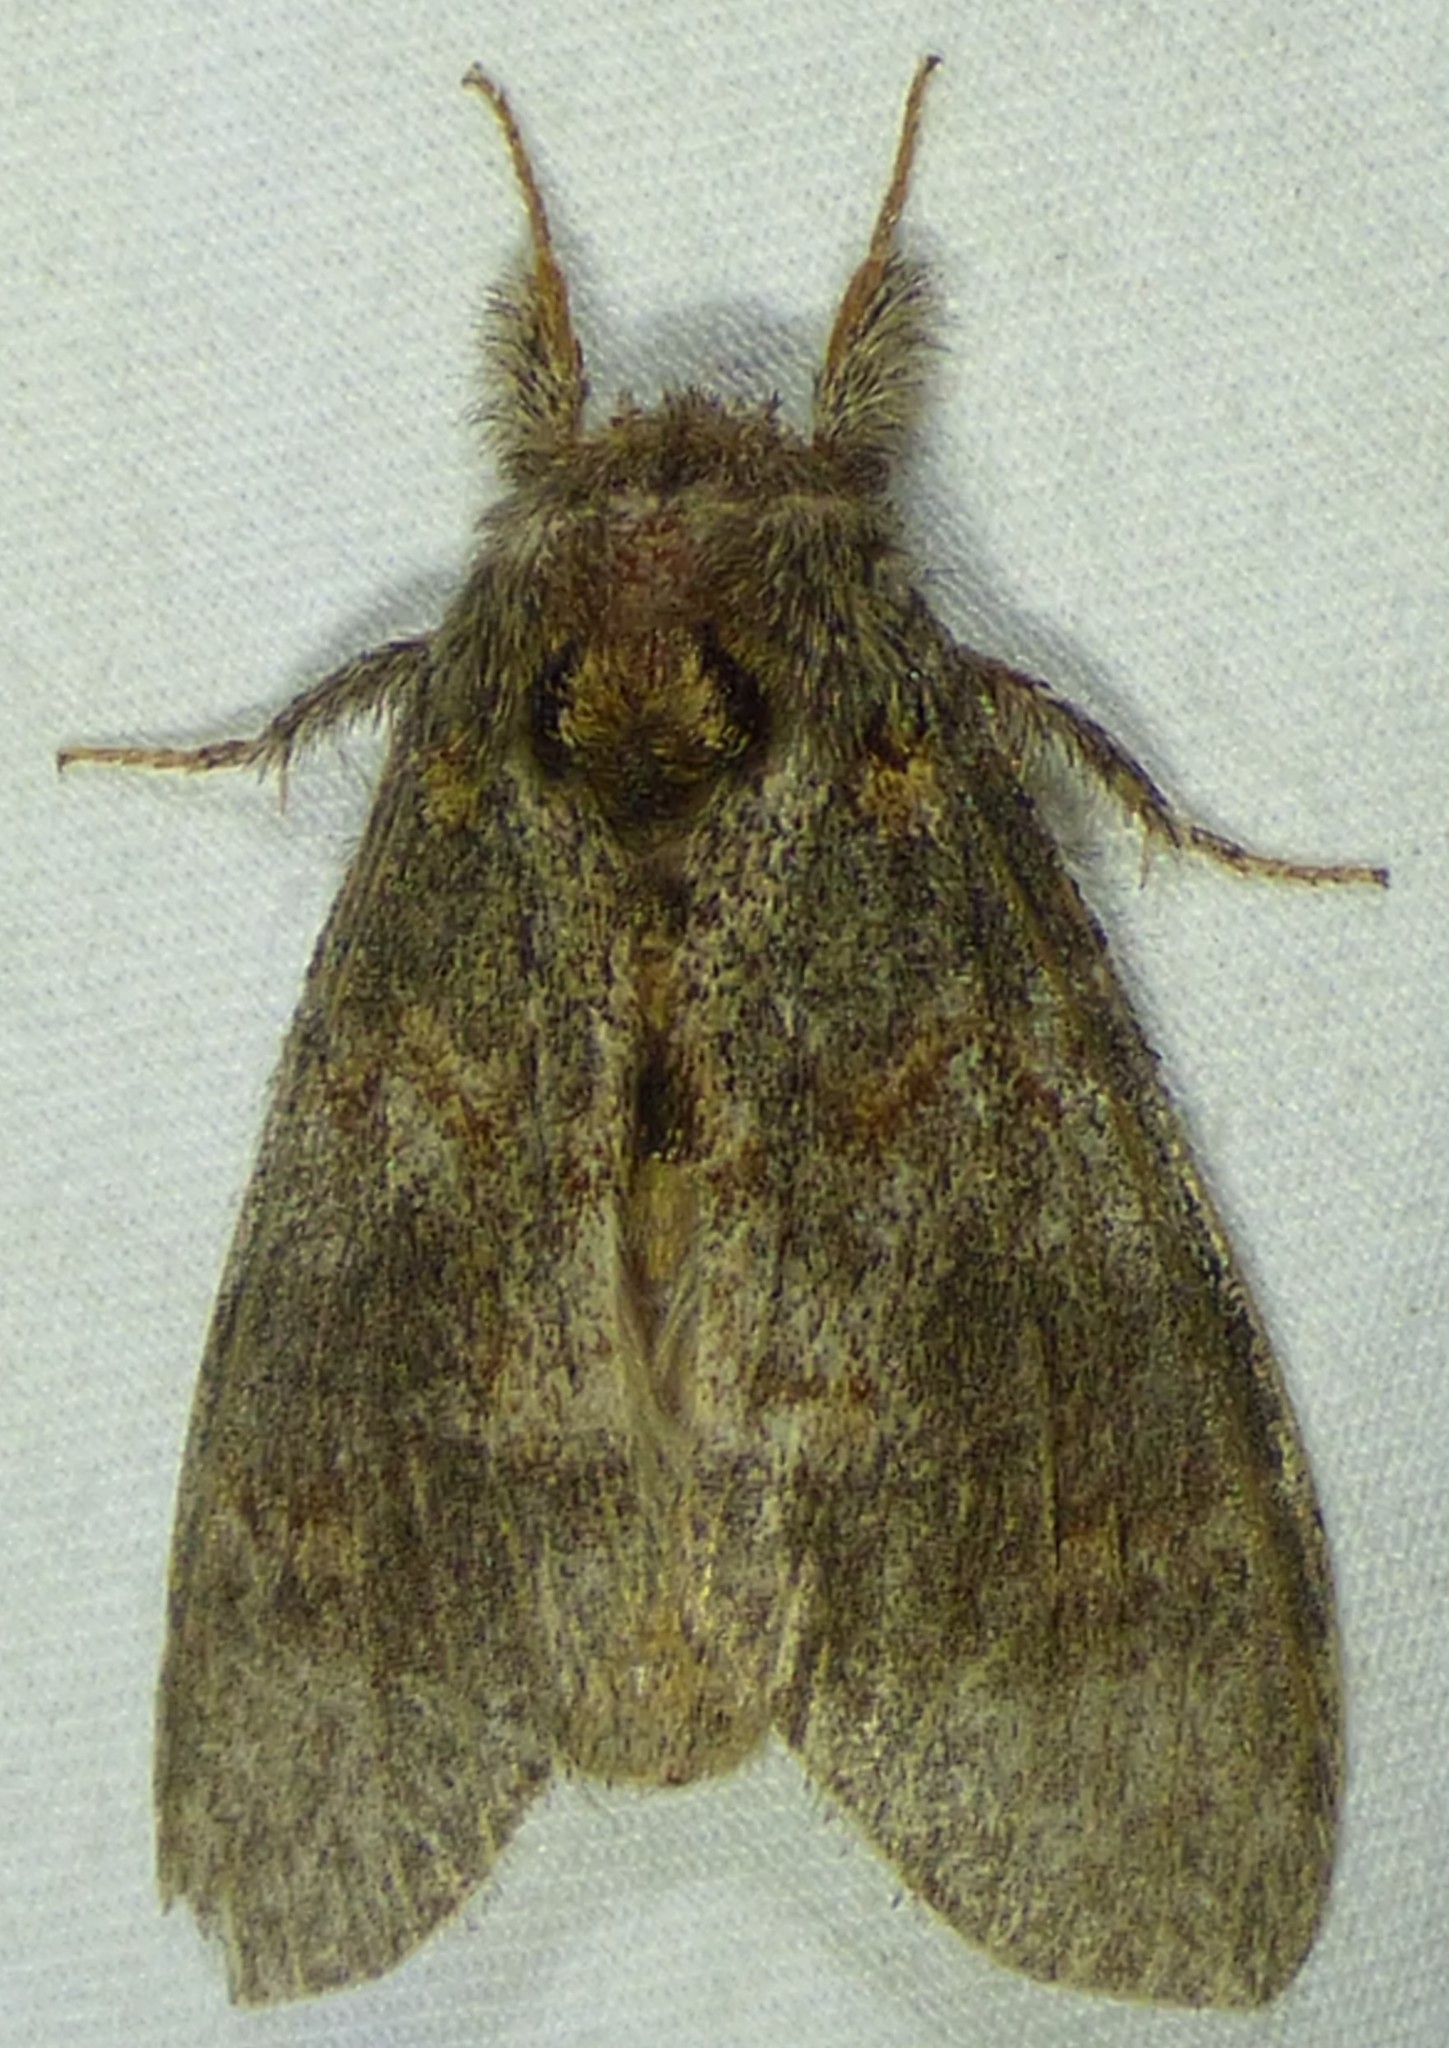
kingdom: Animalia
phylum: Arthropoda
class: Insecta
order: Lepidoptera
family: Notodontidae
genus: Peridea
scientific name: Peridea angulosa
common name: Angulose prominent
